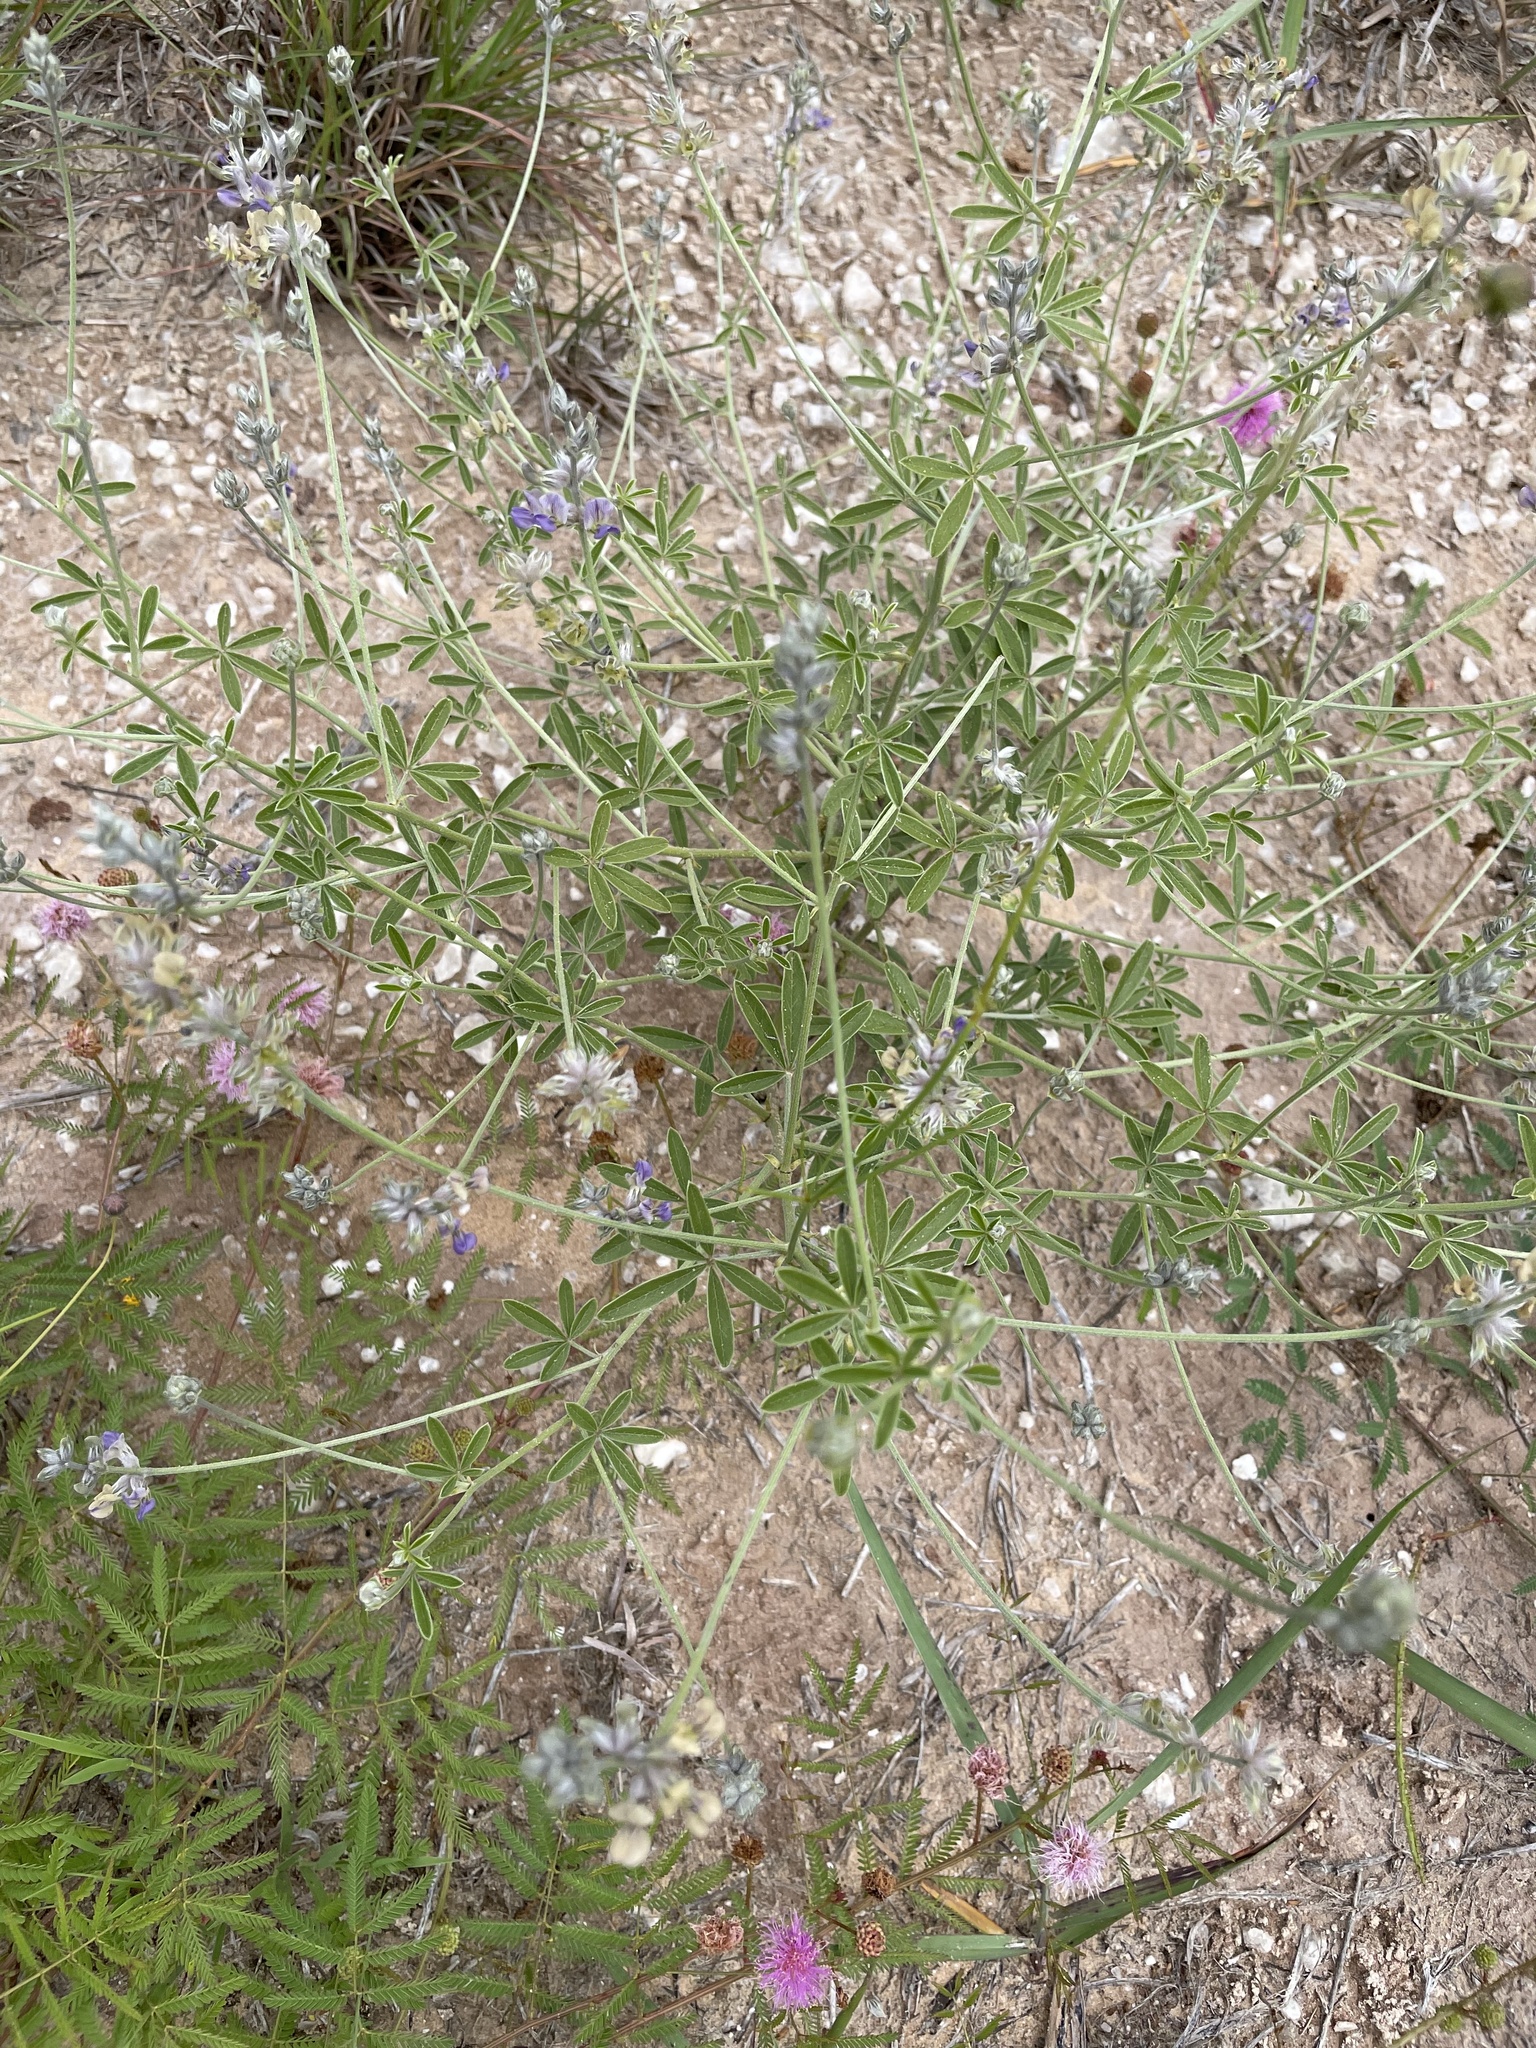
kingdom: Plantae
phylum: Tracheophyta
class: Magnoliopsida
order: Fabales
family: Fabaceae
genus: Pediomelum
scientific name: Pediomelum digitatum
